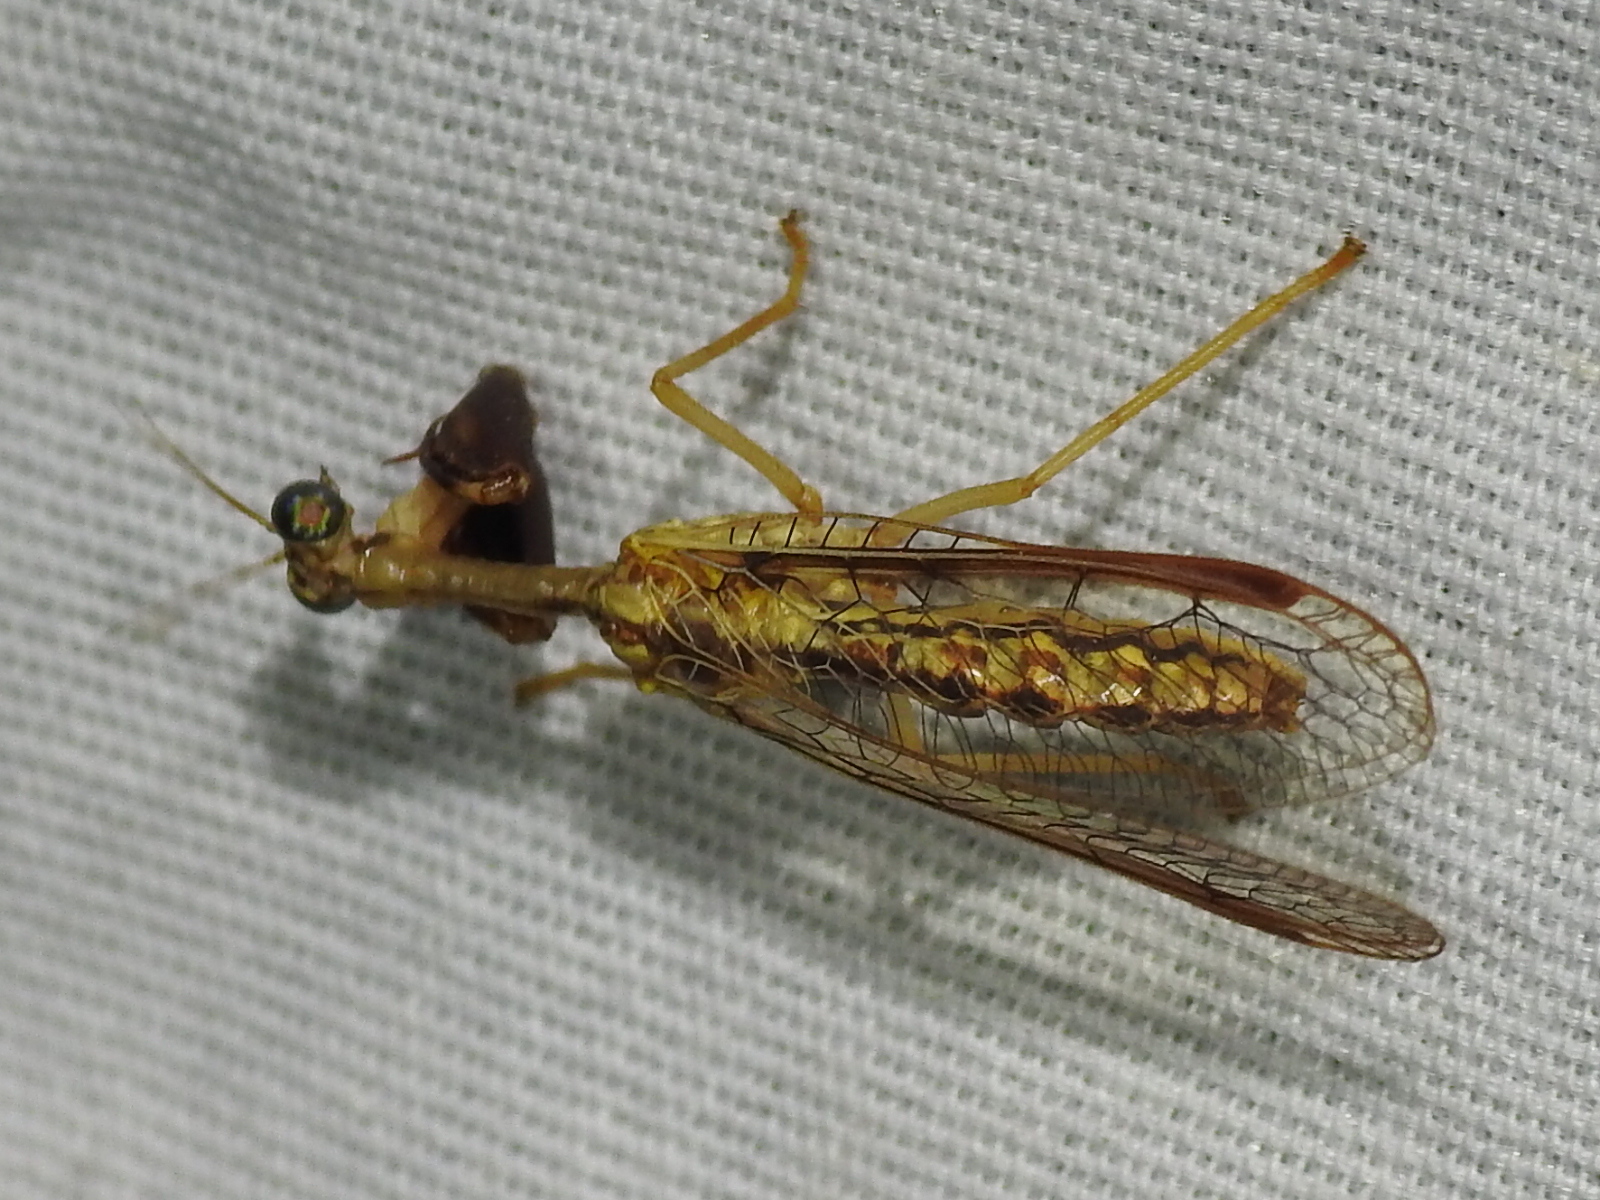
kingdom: Animalia
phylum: Arthropoda
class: Insecta
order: Neuroptera
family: Mantispidae
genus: Dicromantispa
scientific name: Dicromantispa sayi
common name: Say's mantidfly
